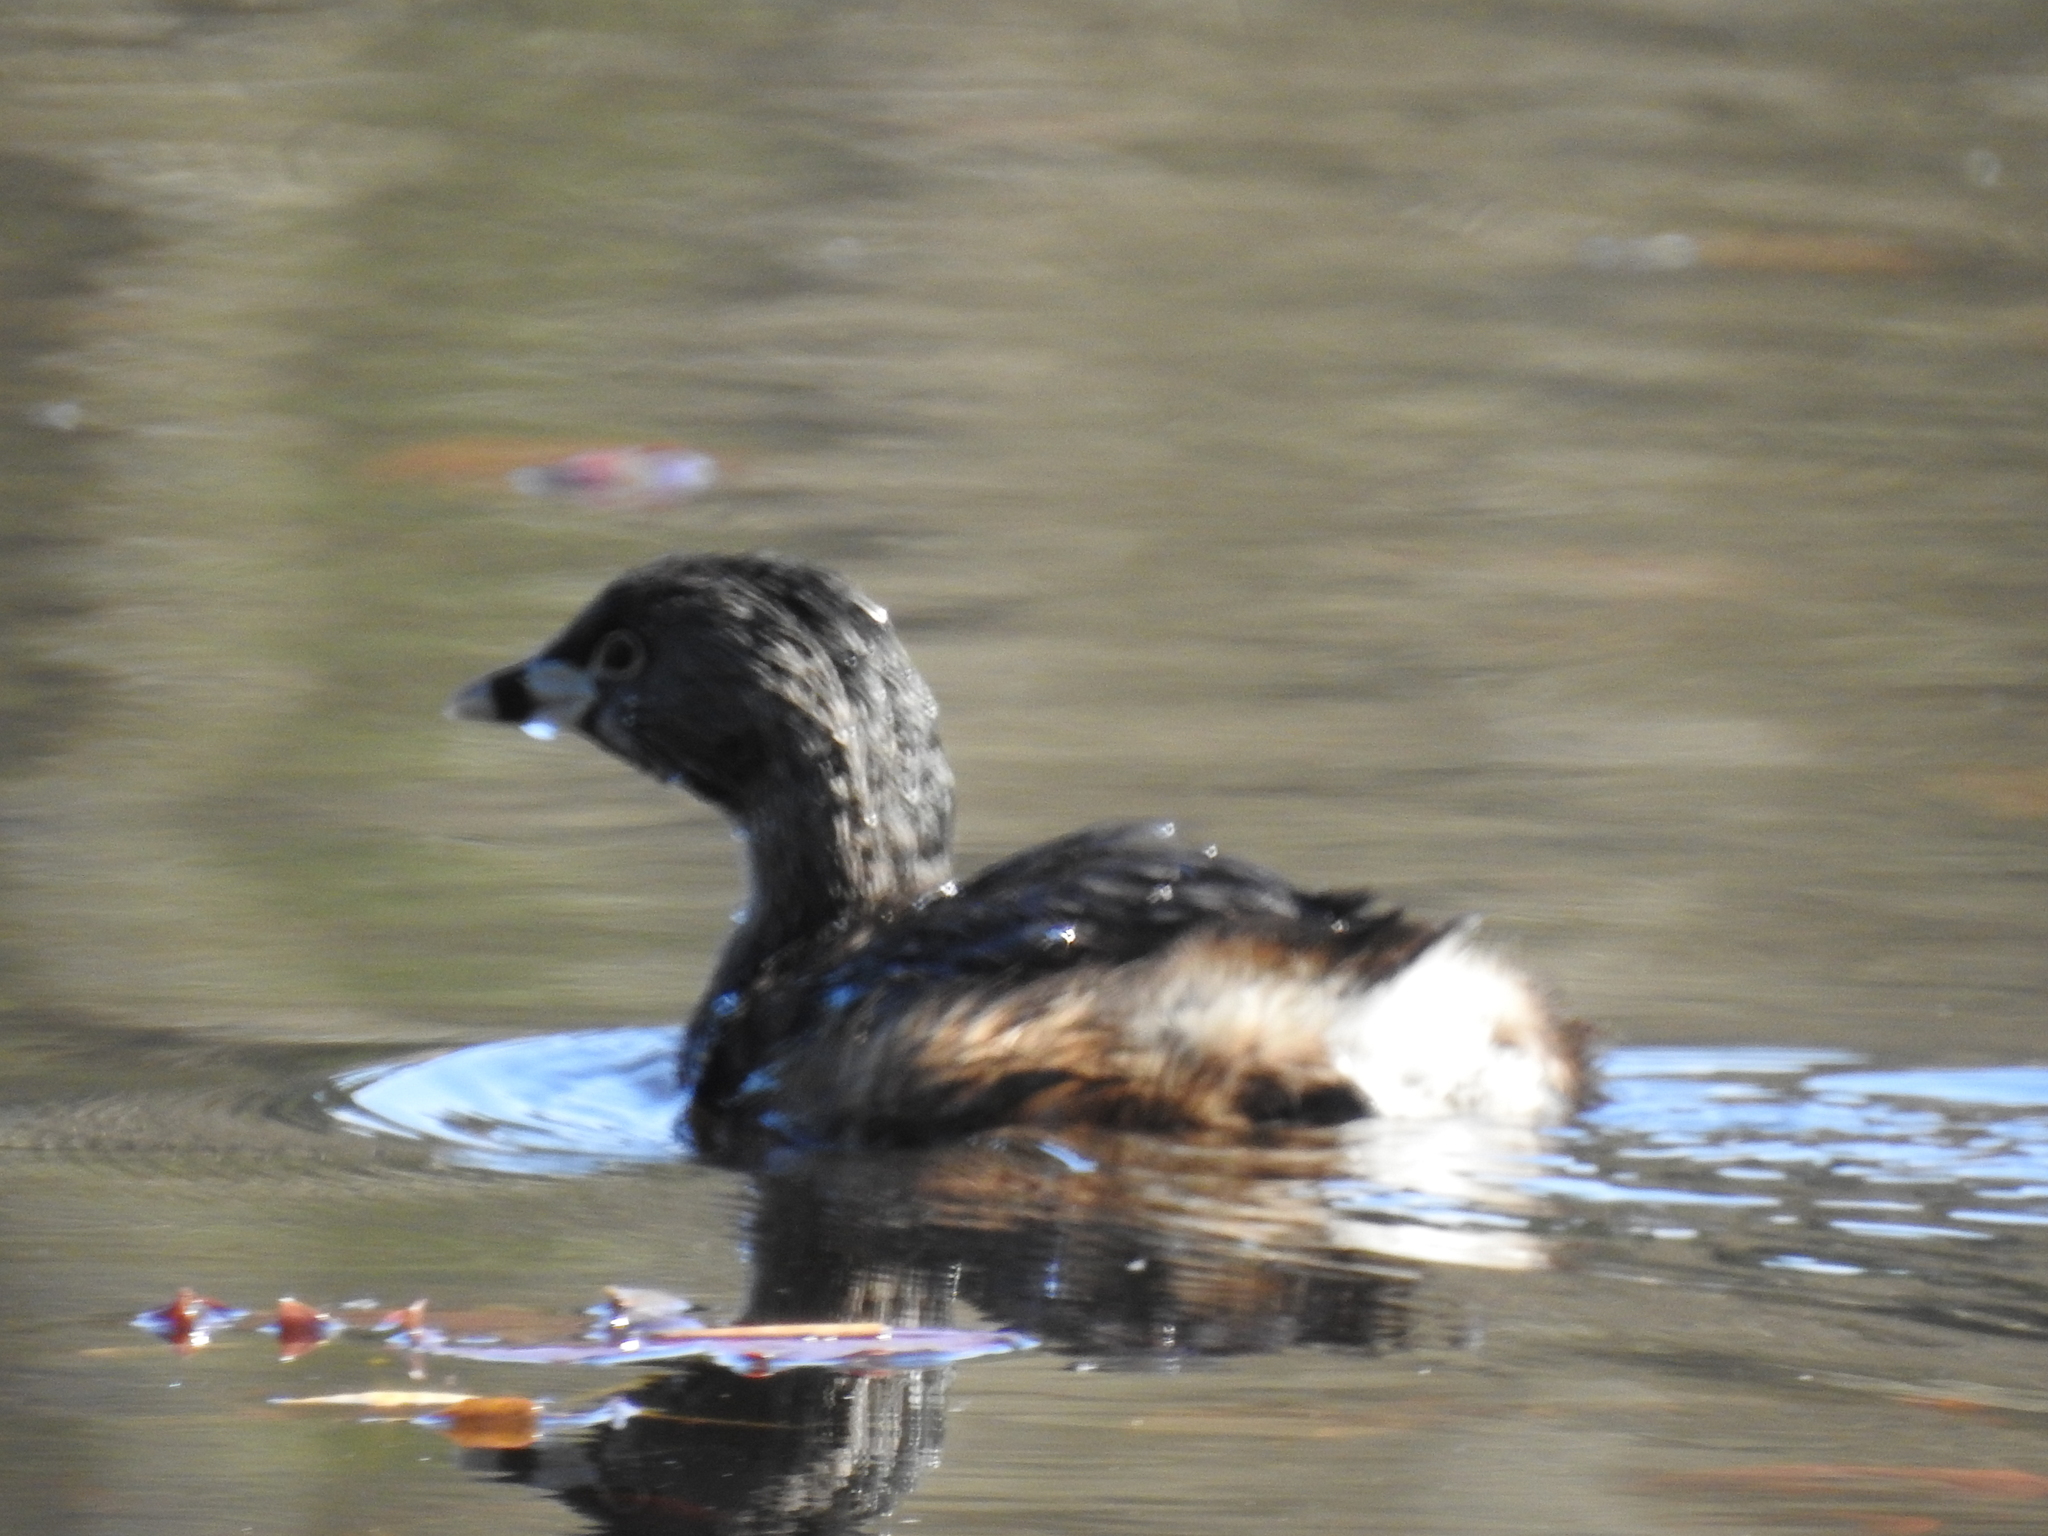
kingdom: Animalia
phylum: Chordata
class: Aves
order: Podicipediformes
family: Podicipedidae
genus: Podilymbus
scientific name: Podilymbus podiceps
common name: Pied-billed grebe
